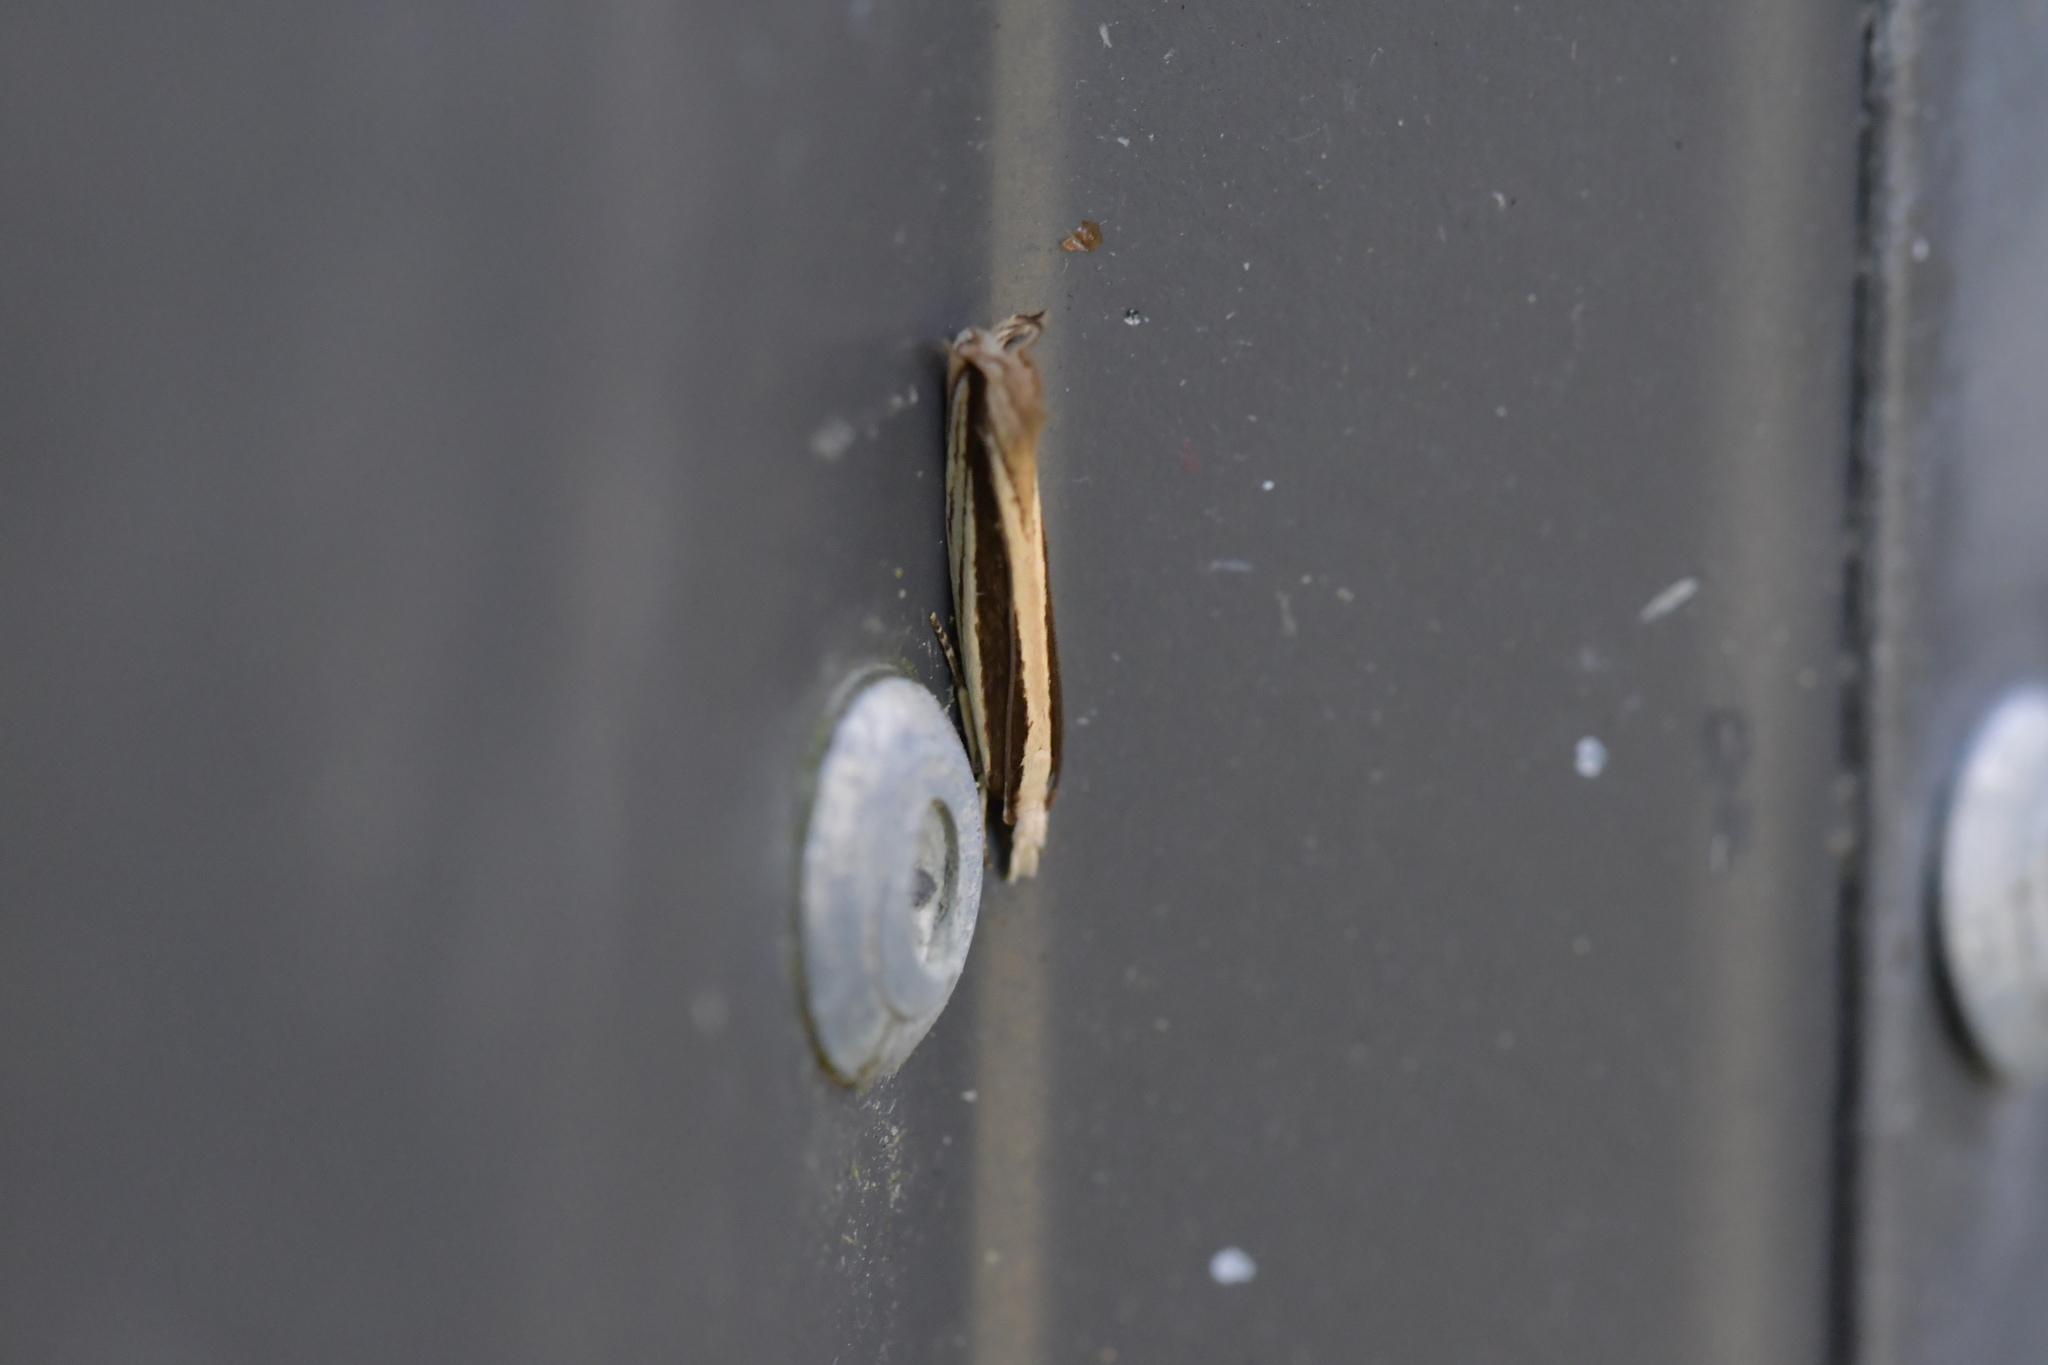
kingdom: Animalia
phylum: Arthropoda
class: Insecta
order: Lepidoptera
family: Tineidae
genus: Erechthias
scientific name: Erechthias stilbella
